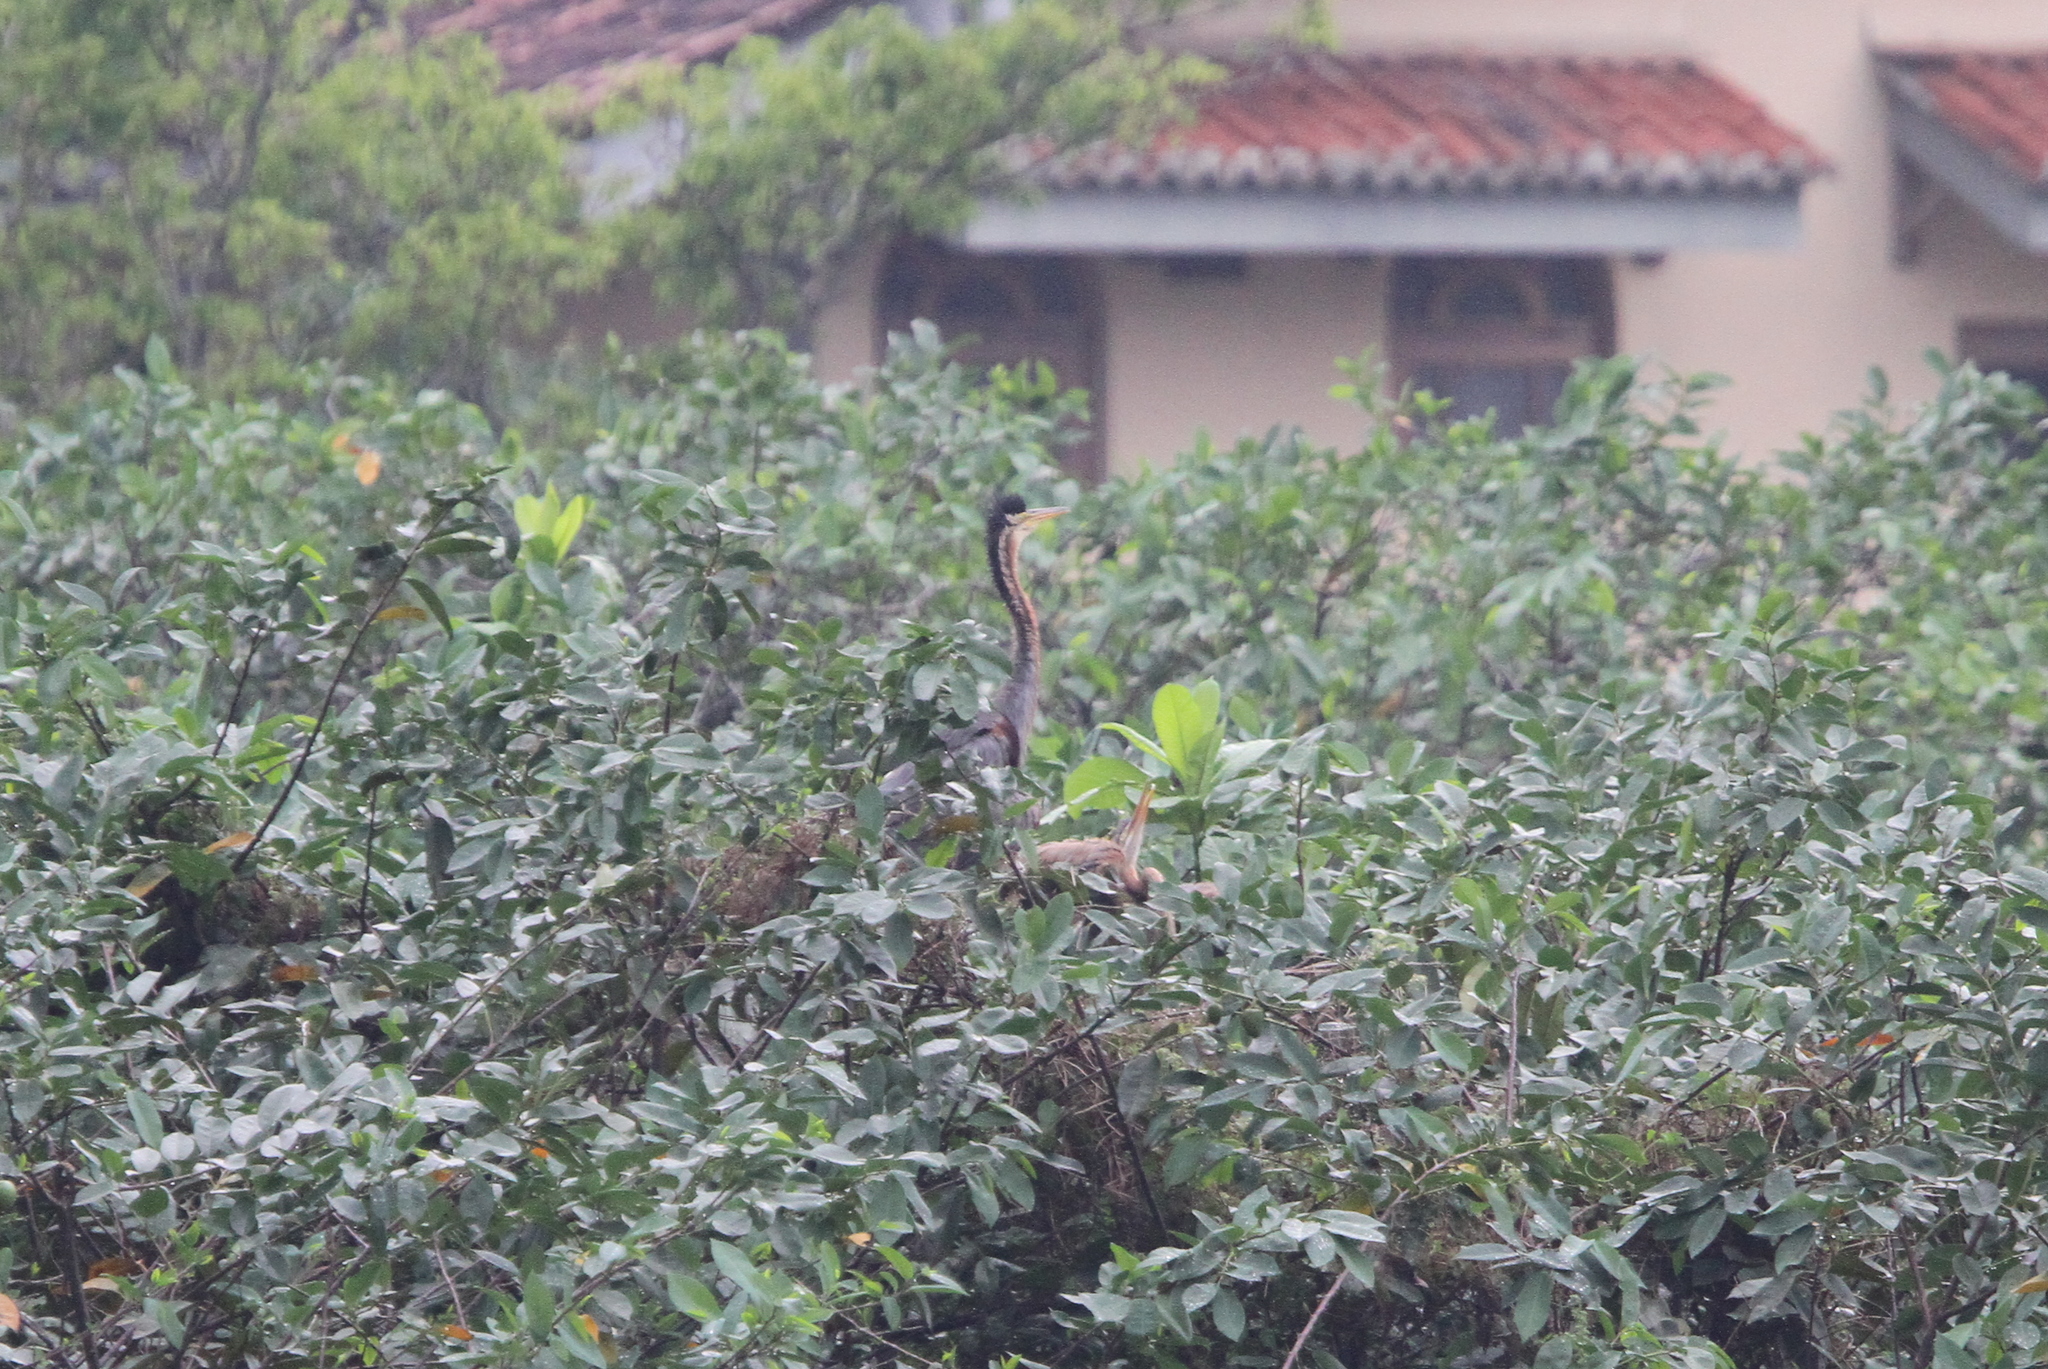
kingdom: Animalia
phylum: Chordata
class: Aves
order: Pelecaniformes
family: Ardeidae
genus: Ardea
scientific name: Ardea purpurea
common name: Purple heron
